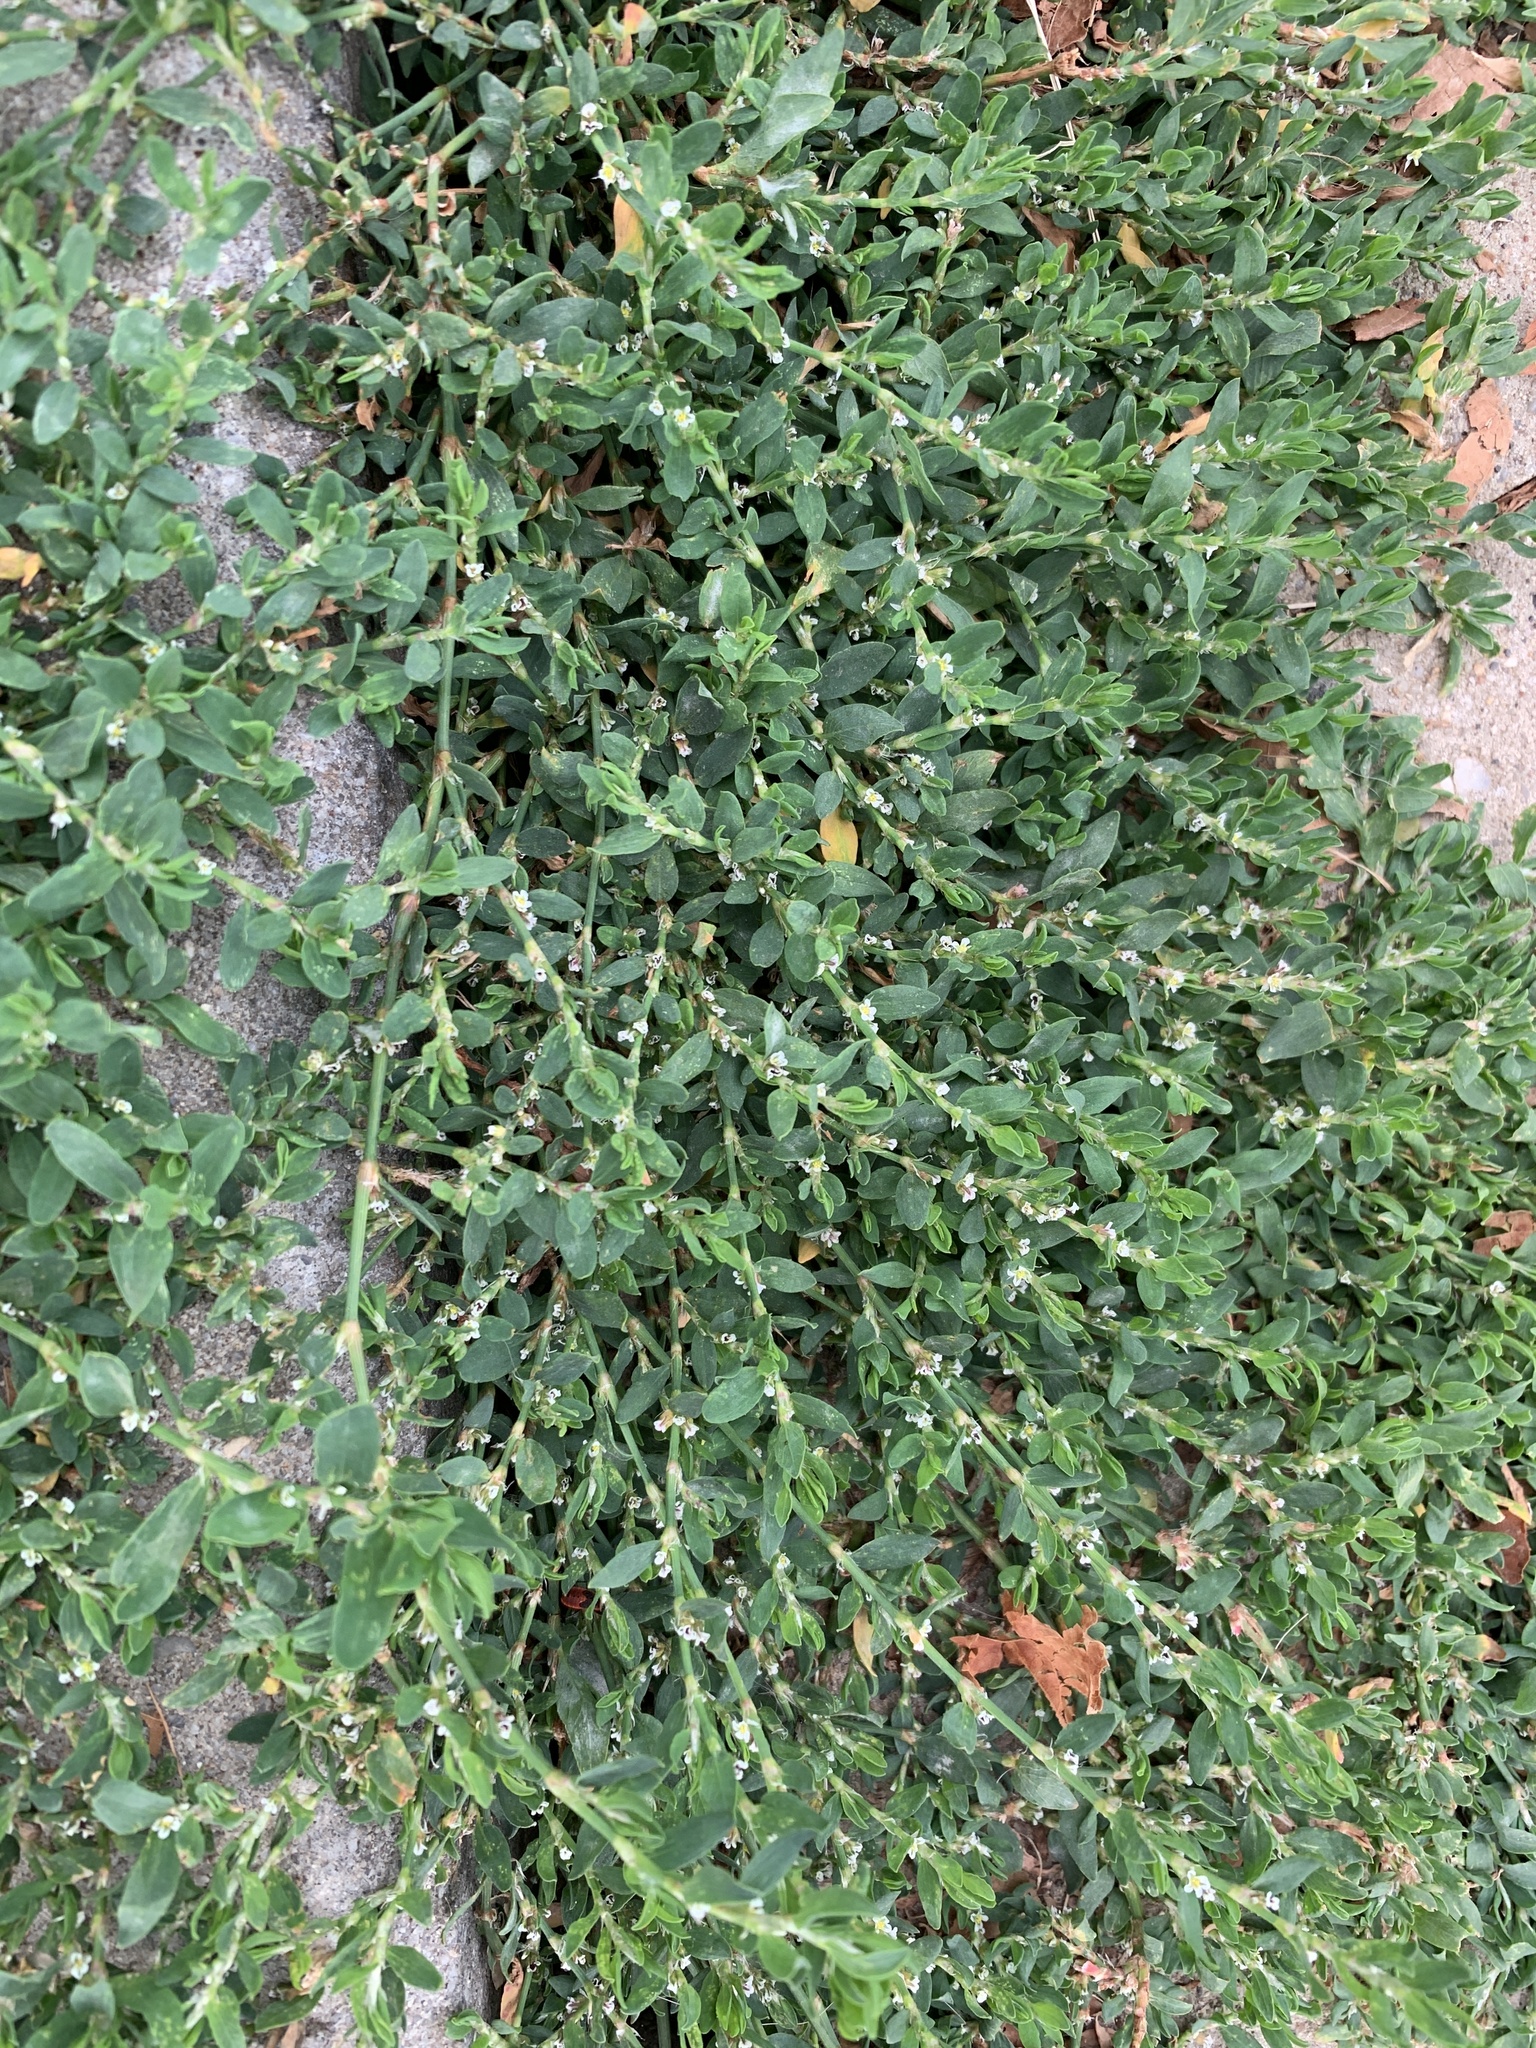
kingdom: Plantae
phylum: Tracheophyta
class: Magnoliopsida
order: Caryophyllales
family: Polygonaceae
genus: Polygonum
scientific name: Polygonum arenastrum
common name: Equal-leaved knotgrass
